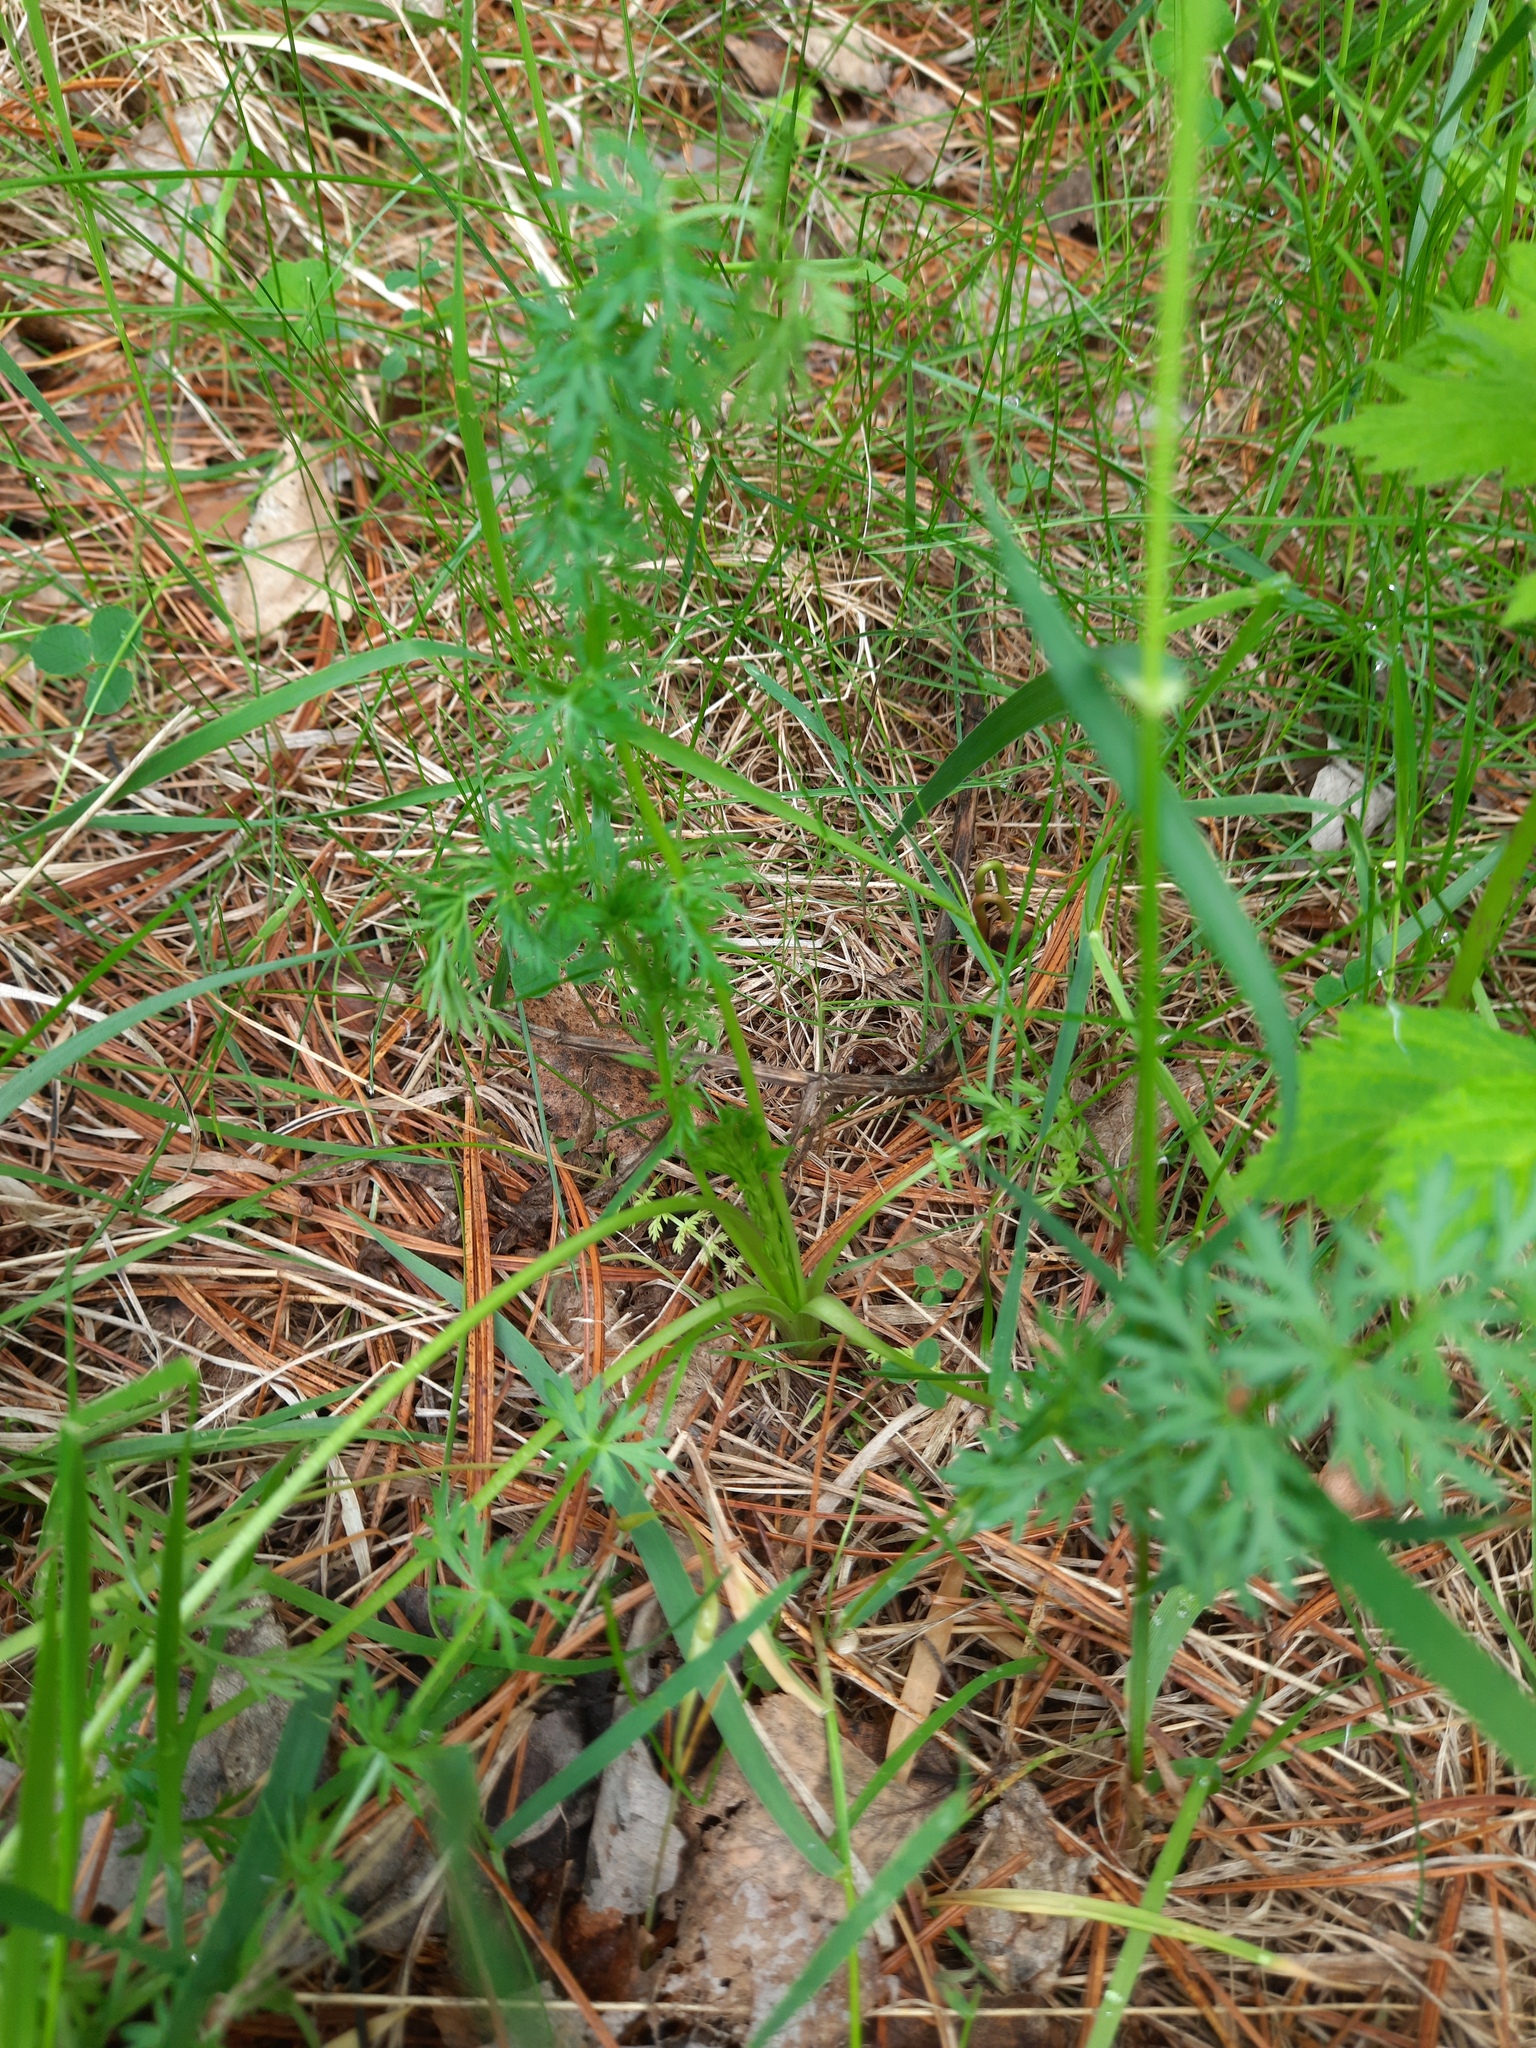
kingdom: Plantae
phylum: Tracheophyta
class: Magnoliopsida
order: Apiales
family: Apiaceae
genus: Carum
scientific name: Carum carvi
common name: Caraway
